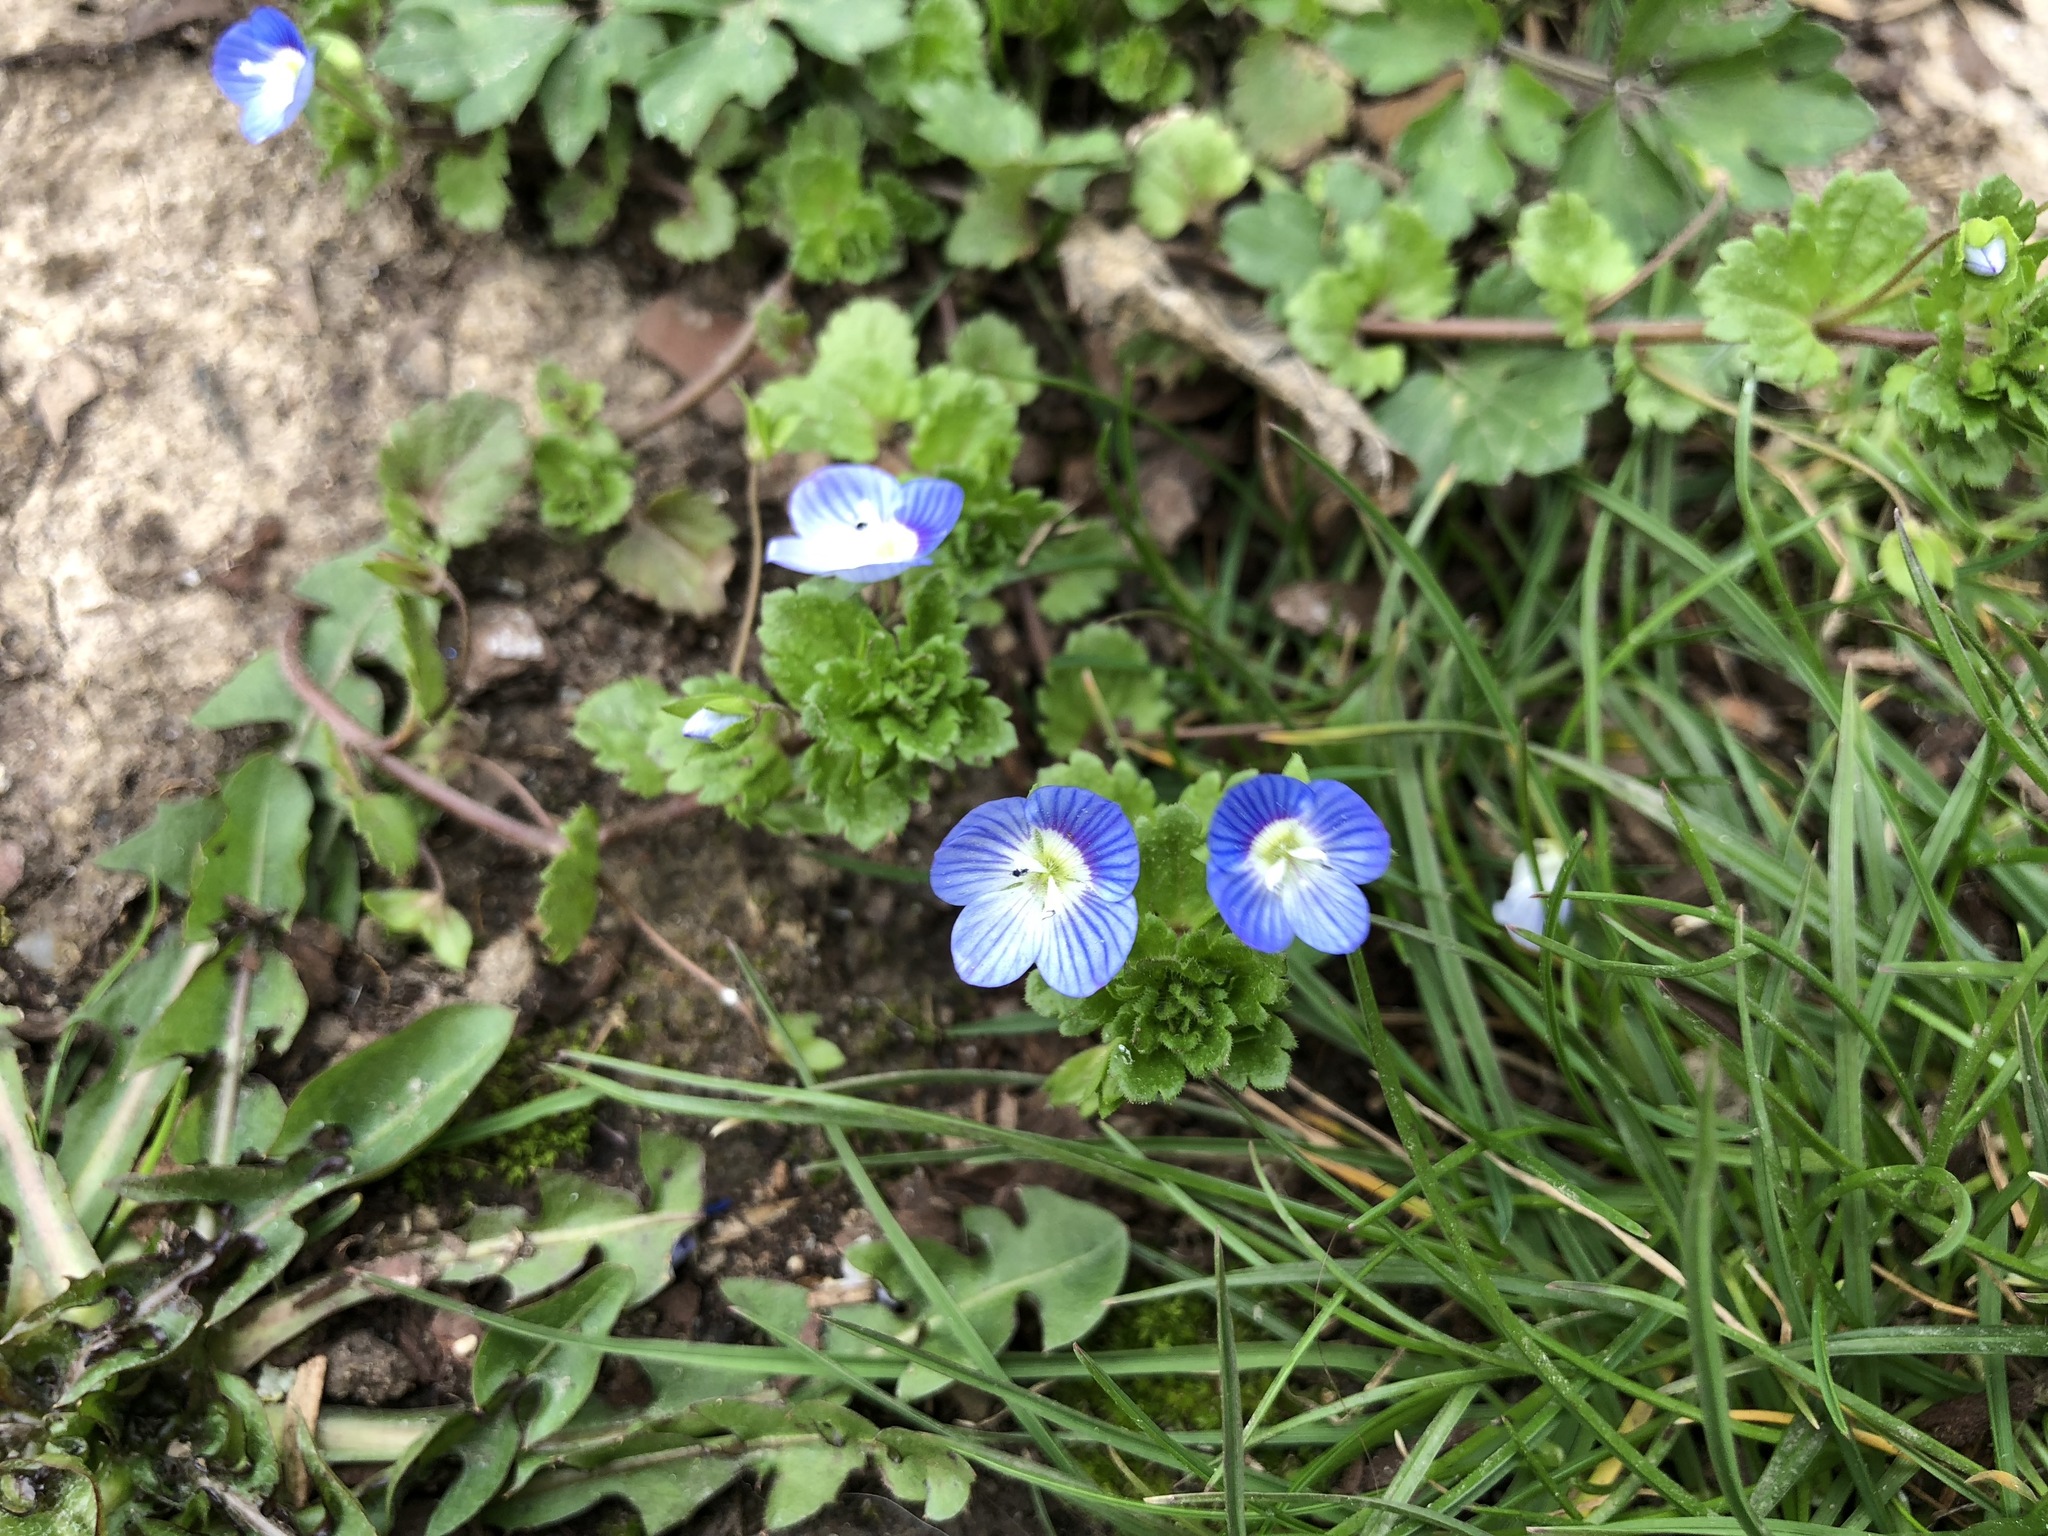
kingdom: Plantae
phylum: Tracheophyta
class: Magnoliopsida
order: Lamiales
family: Plantaginaceae
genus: Veronica
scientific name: Veronica persica
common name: Common field-speedwell
